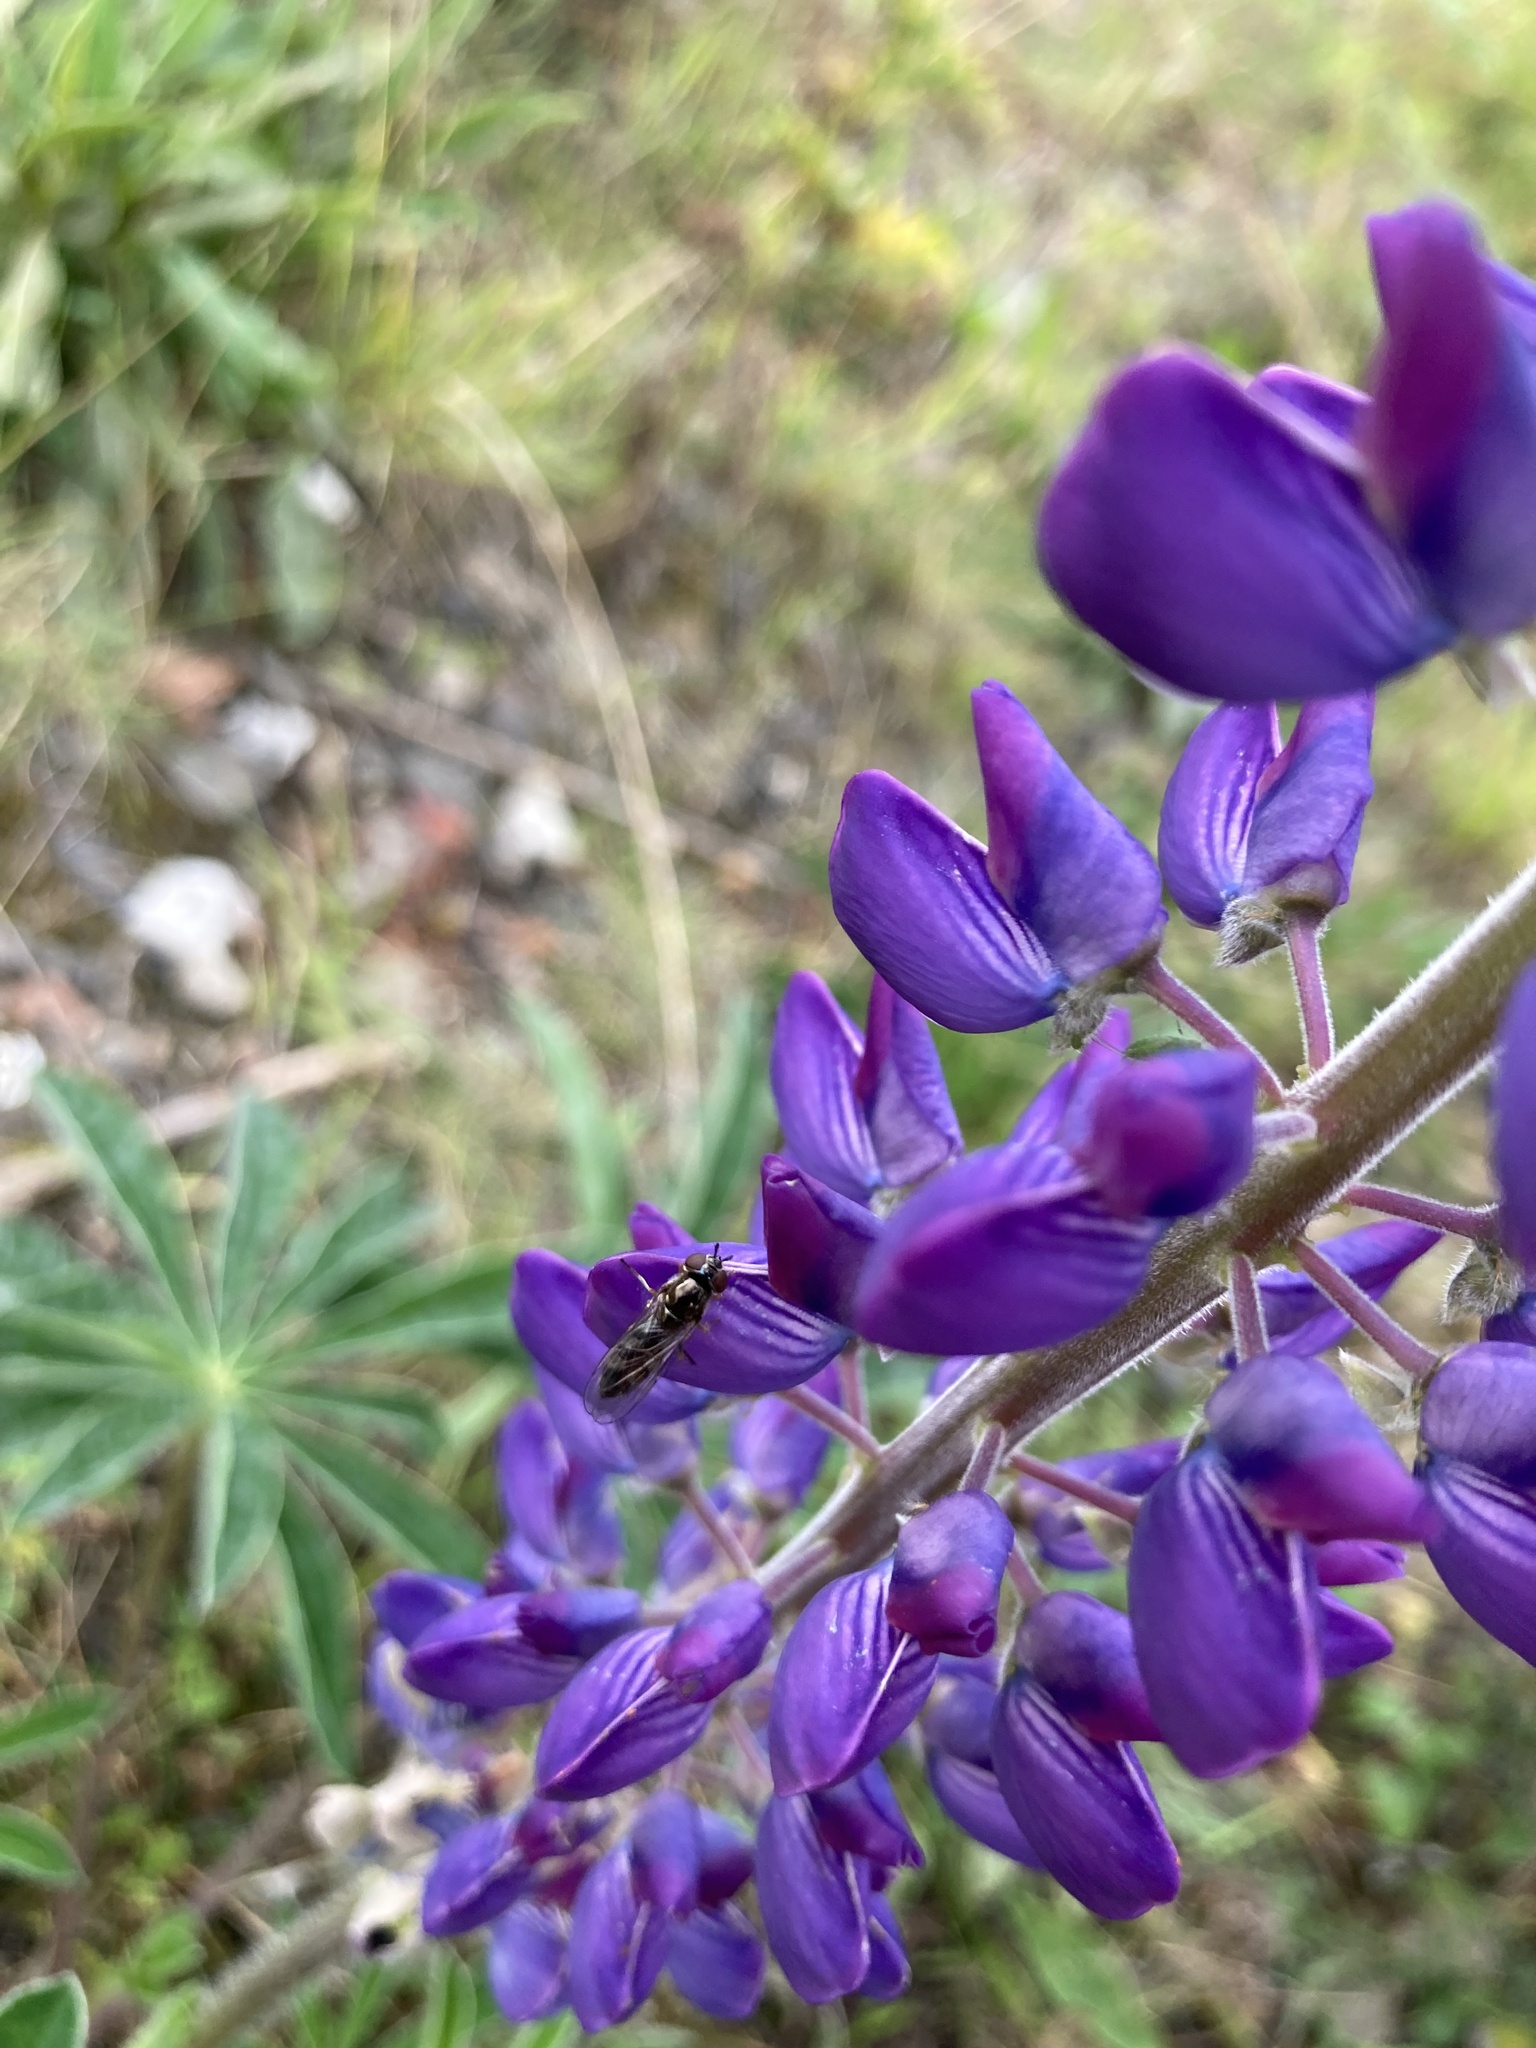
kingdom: Animalia
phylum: Arthropoda
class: Insecta
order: Diptera
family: Syrphidae
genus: Platycheirus
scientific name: Platycheirus albimanus
